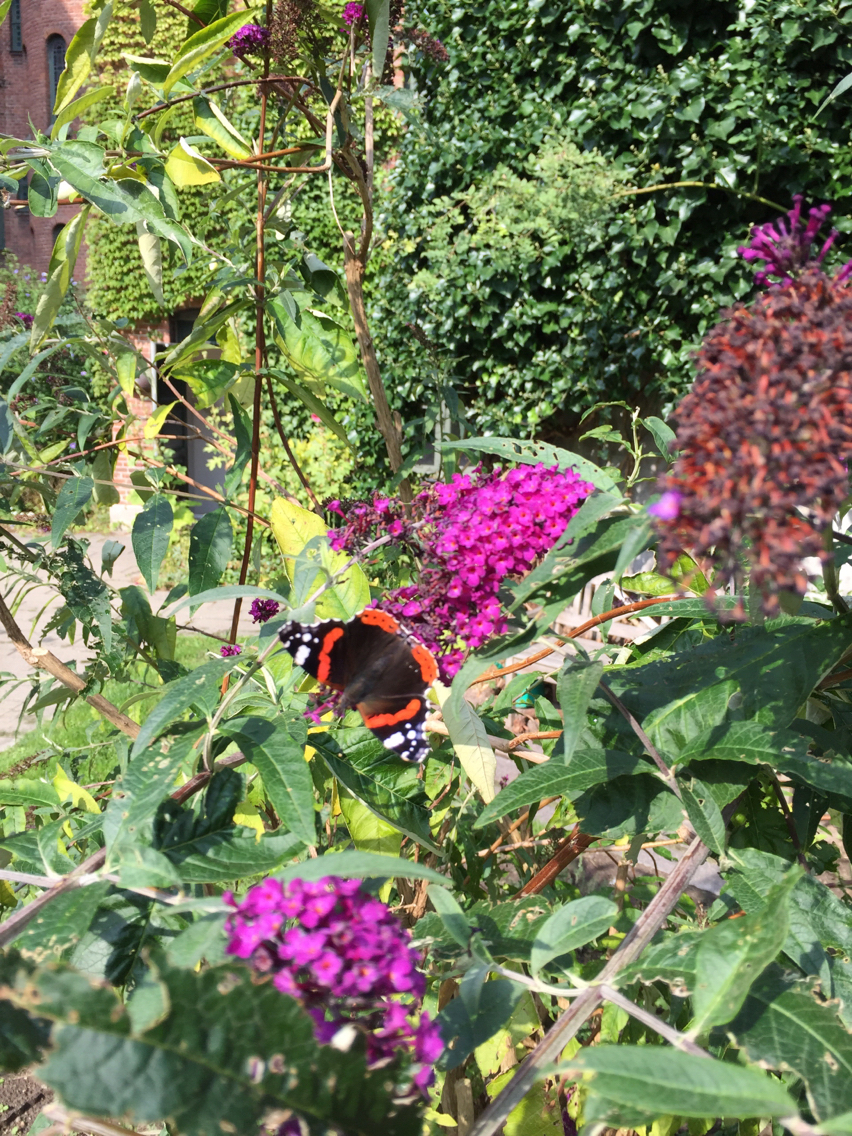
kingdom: Animalia
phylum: Arthropoda
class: Insecta
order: Lepidoptera
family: Nymphalidae
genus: Vanessa
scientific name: Vanessa atalanta
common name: Red admiral
